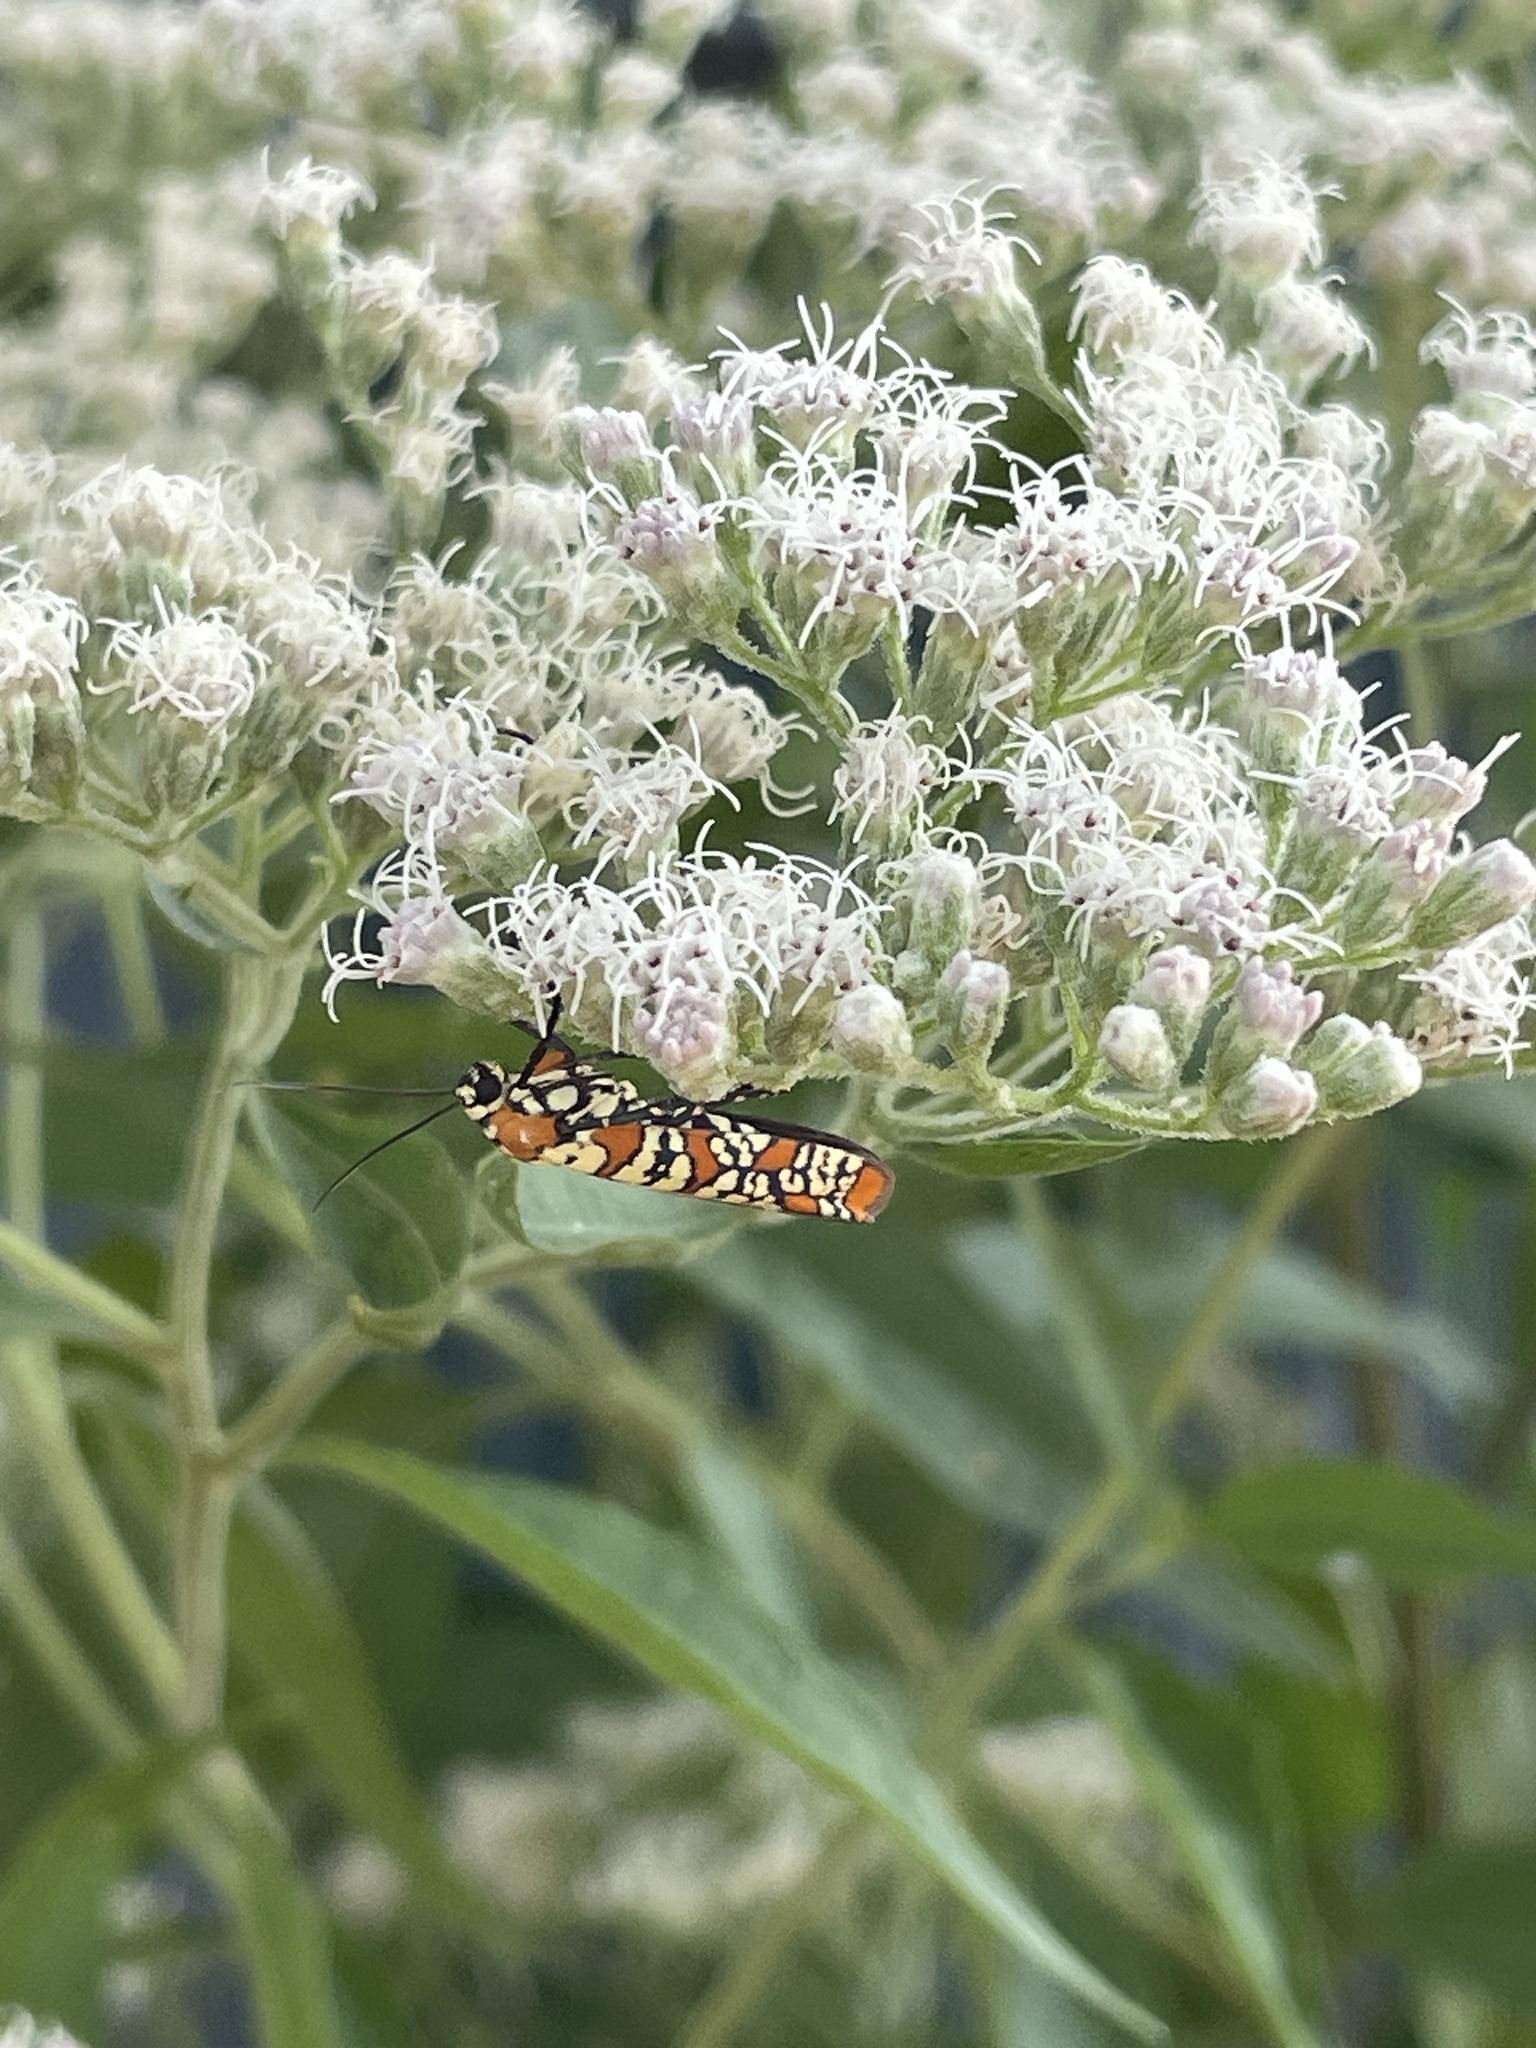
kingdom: Animalia
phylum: Arthropoda
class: Insecta
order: Lepidoptera
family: Attevidae
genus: Atteva
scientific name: Atteva punctella
